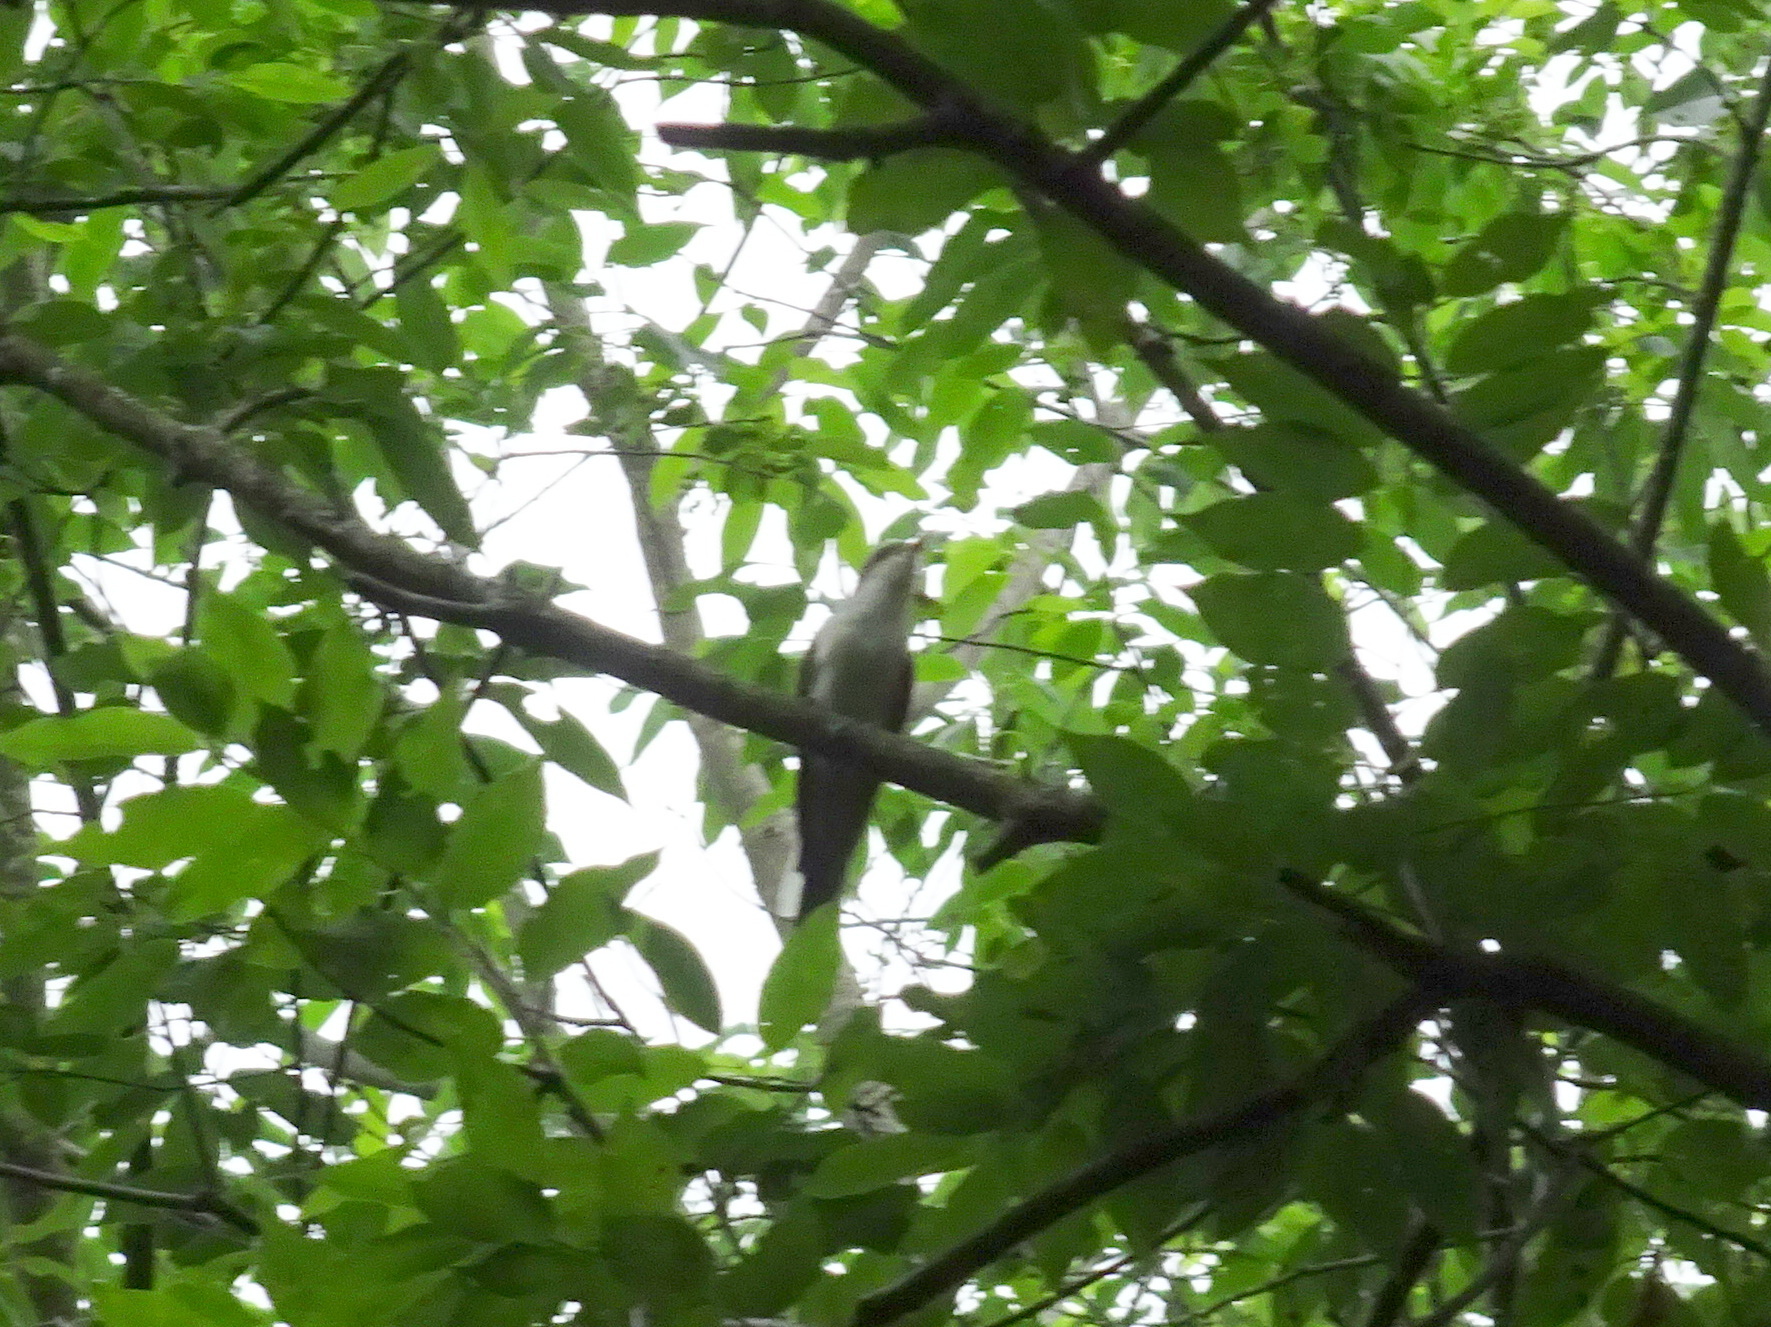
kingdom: Animalia
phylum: Chordata
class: Aves
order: Cuculiformes
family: Cuculidae
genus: Coccyzus
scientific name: Coccyzus americanus
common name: Yellow-billed cuckoo
